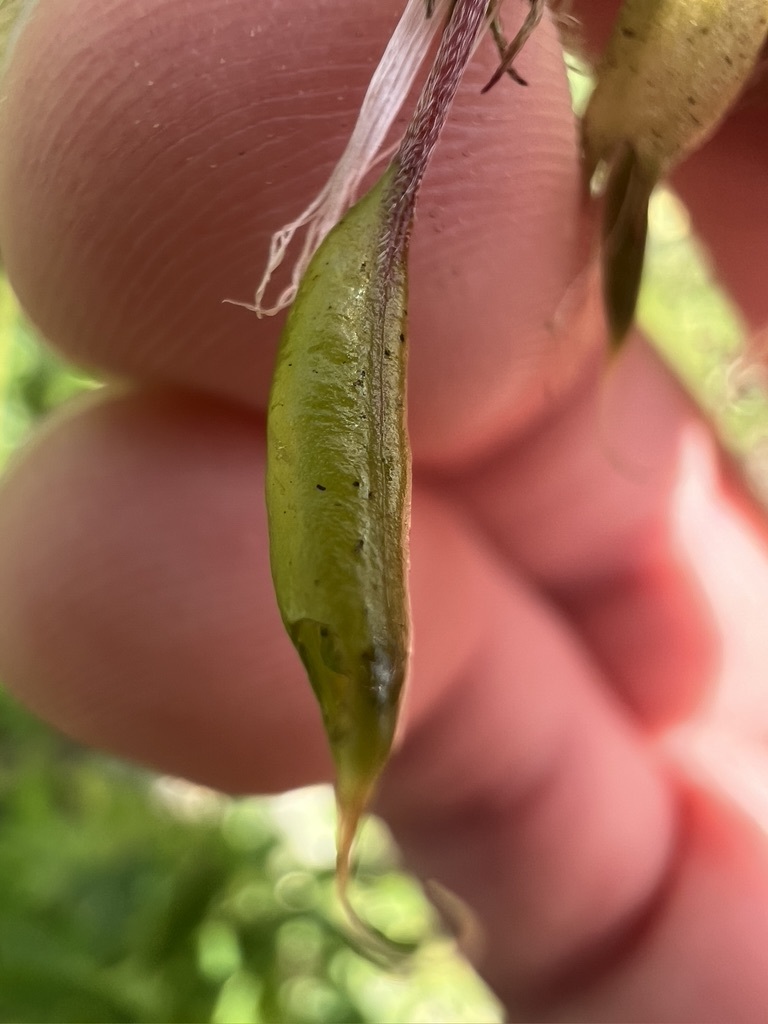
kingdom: Plantae
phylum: Tracheophyta
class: Magnoliopsida
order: Fabales
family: Fabaceae
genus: Astragalus
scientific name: Astragalus trichopodus
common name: Santa barbara milk-vetch
